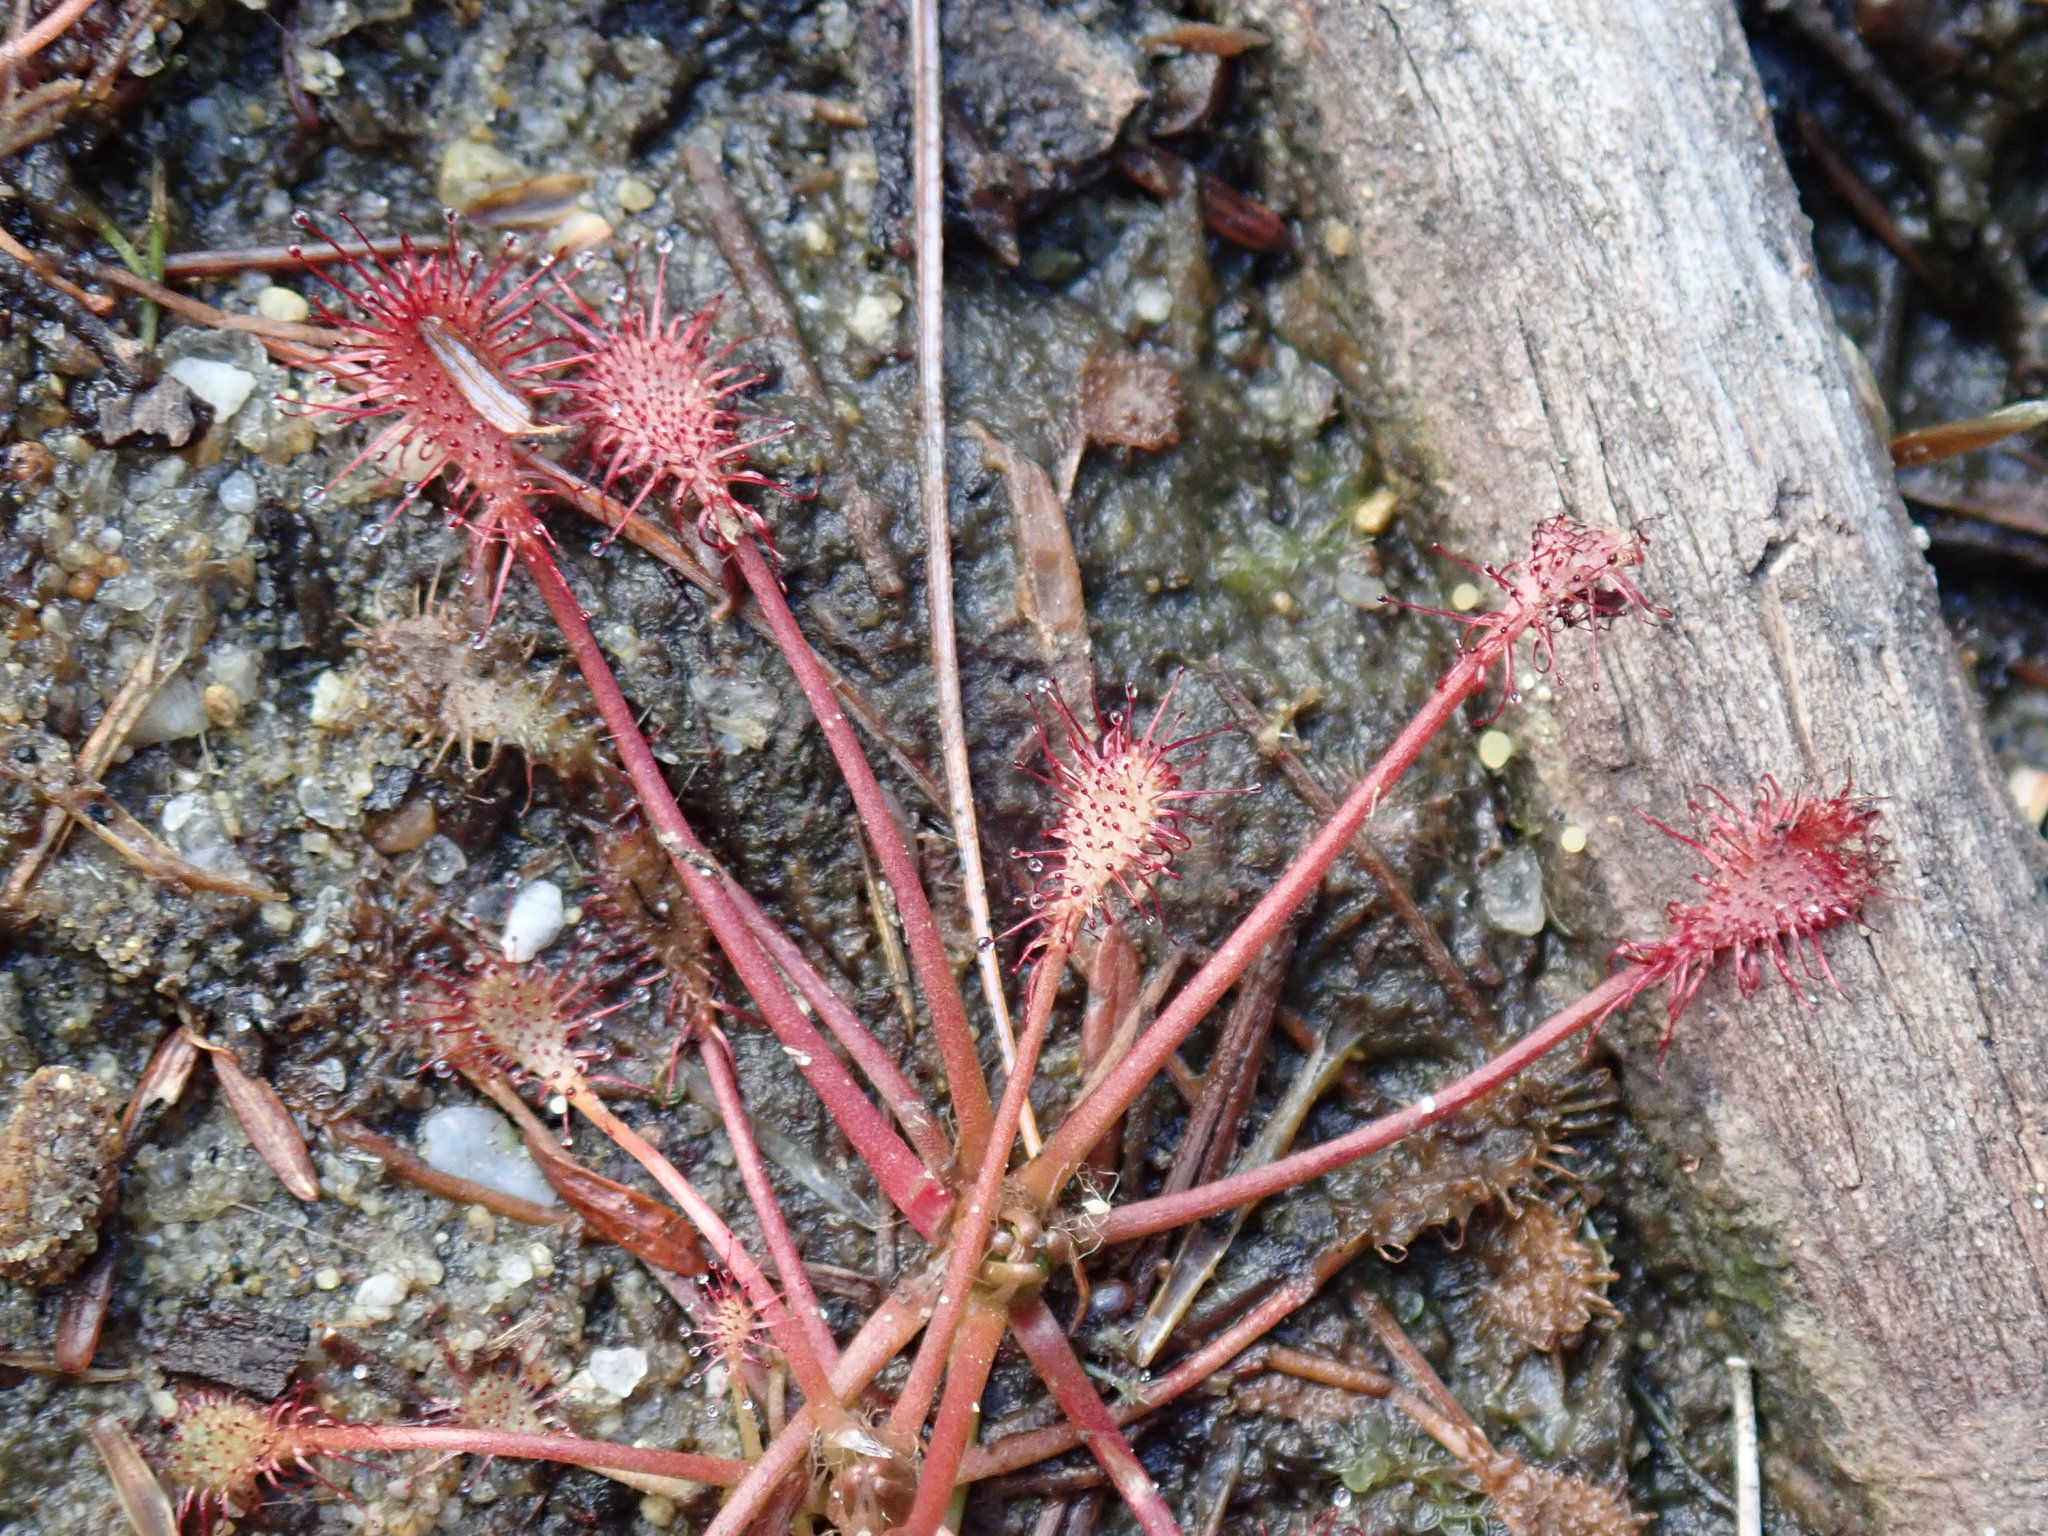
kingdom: Plantae
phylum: Tracheophyta
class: Magnoliopsida
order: Caryophyllales
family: Droseraceae
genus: Drosera
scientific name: Drosera intermedia
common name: Oblong-leaved sundew
